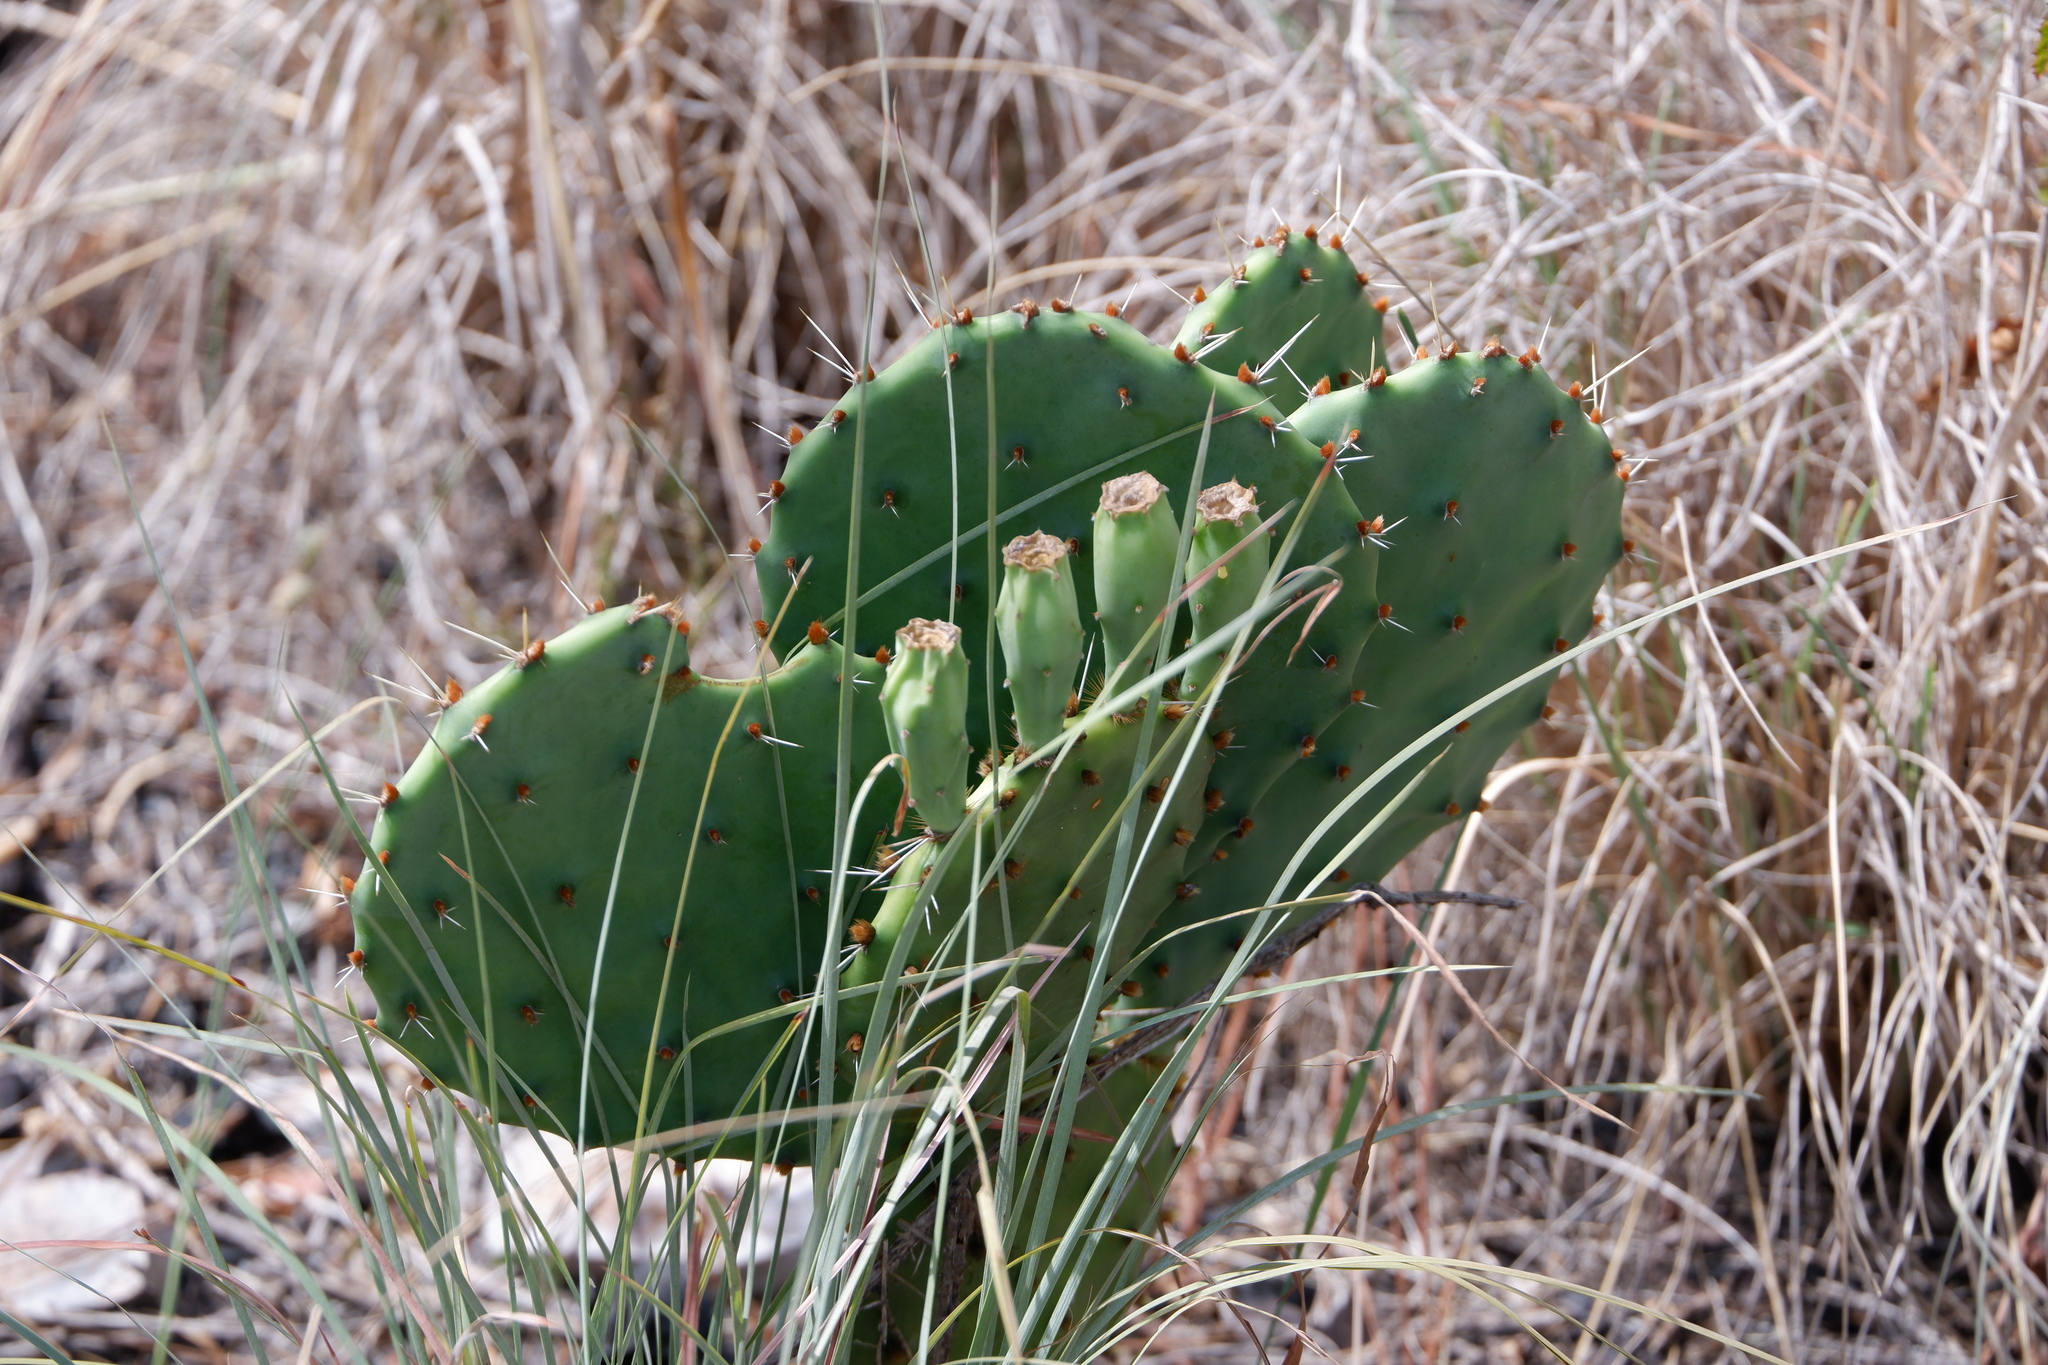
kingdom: Plantae
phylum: Tracheophyta
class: Magnoliopsida
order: Caryophyllales
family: Cactaceae
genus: Opuntia
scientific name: Opuntia macrorhiza
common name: Grassland pricklypear
